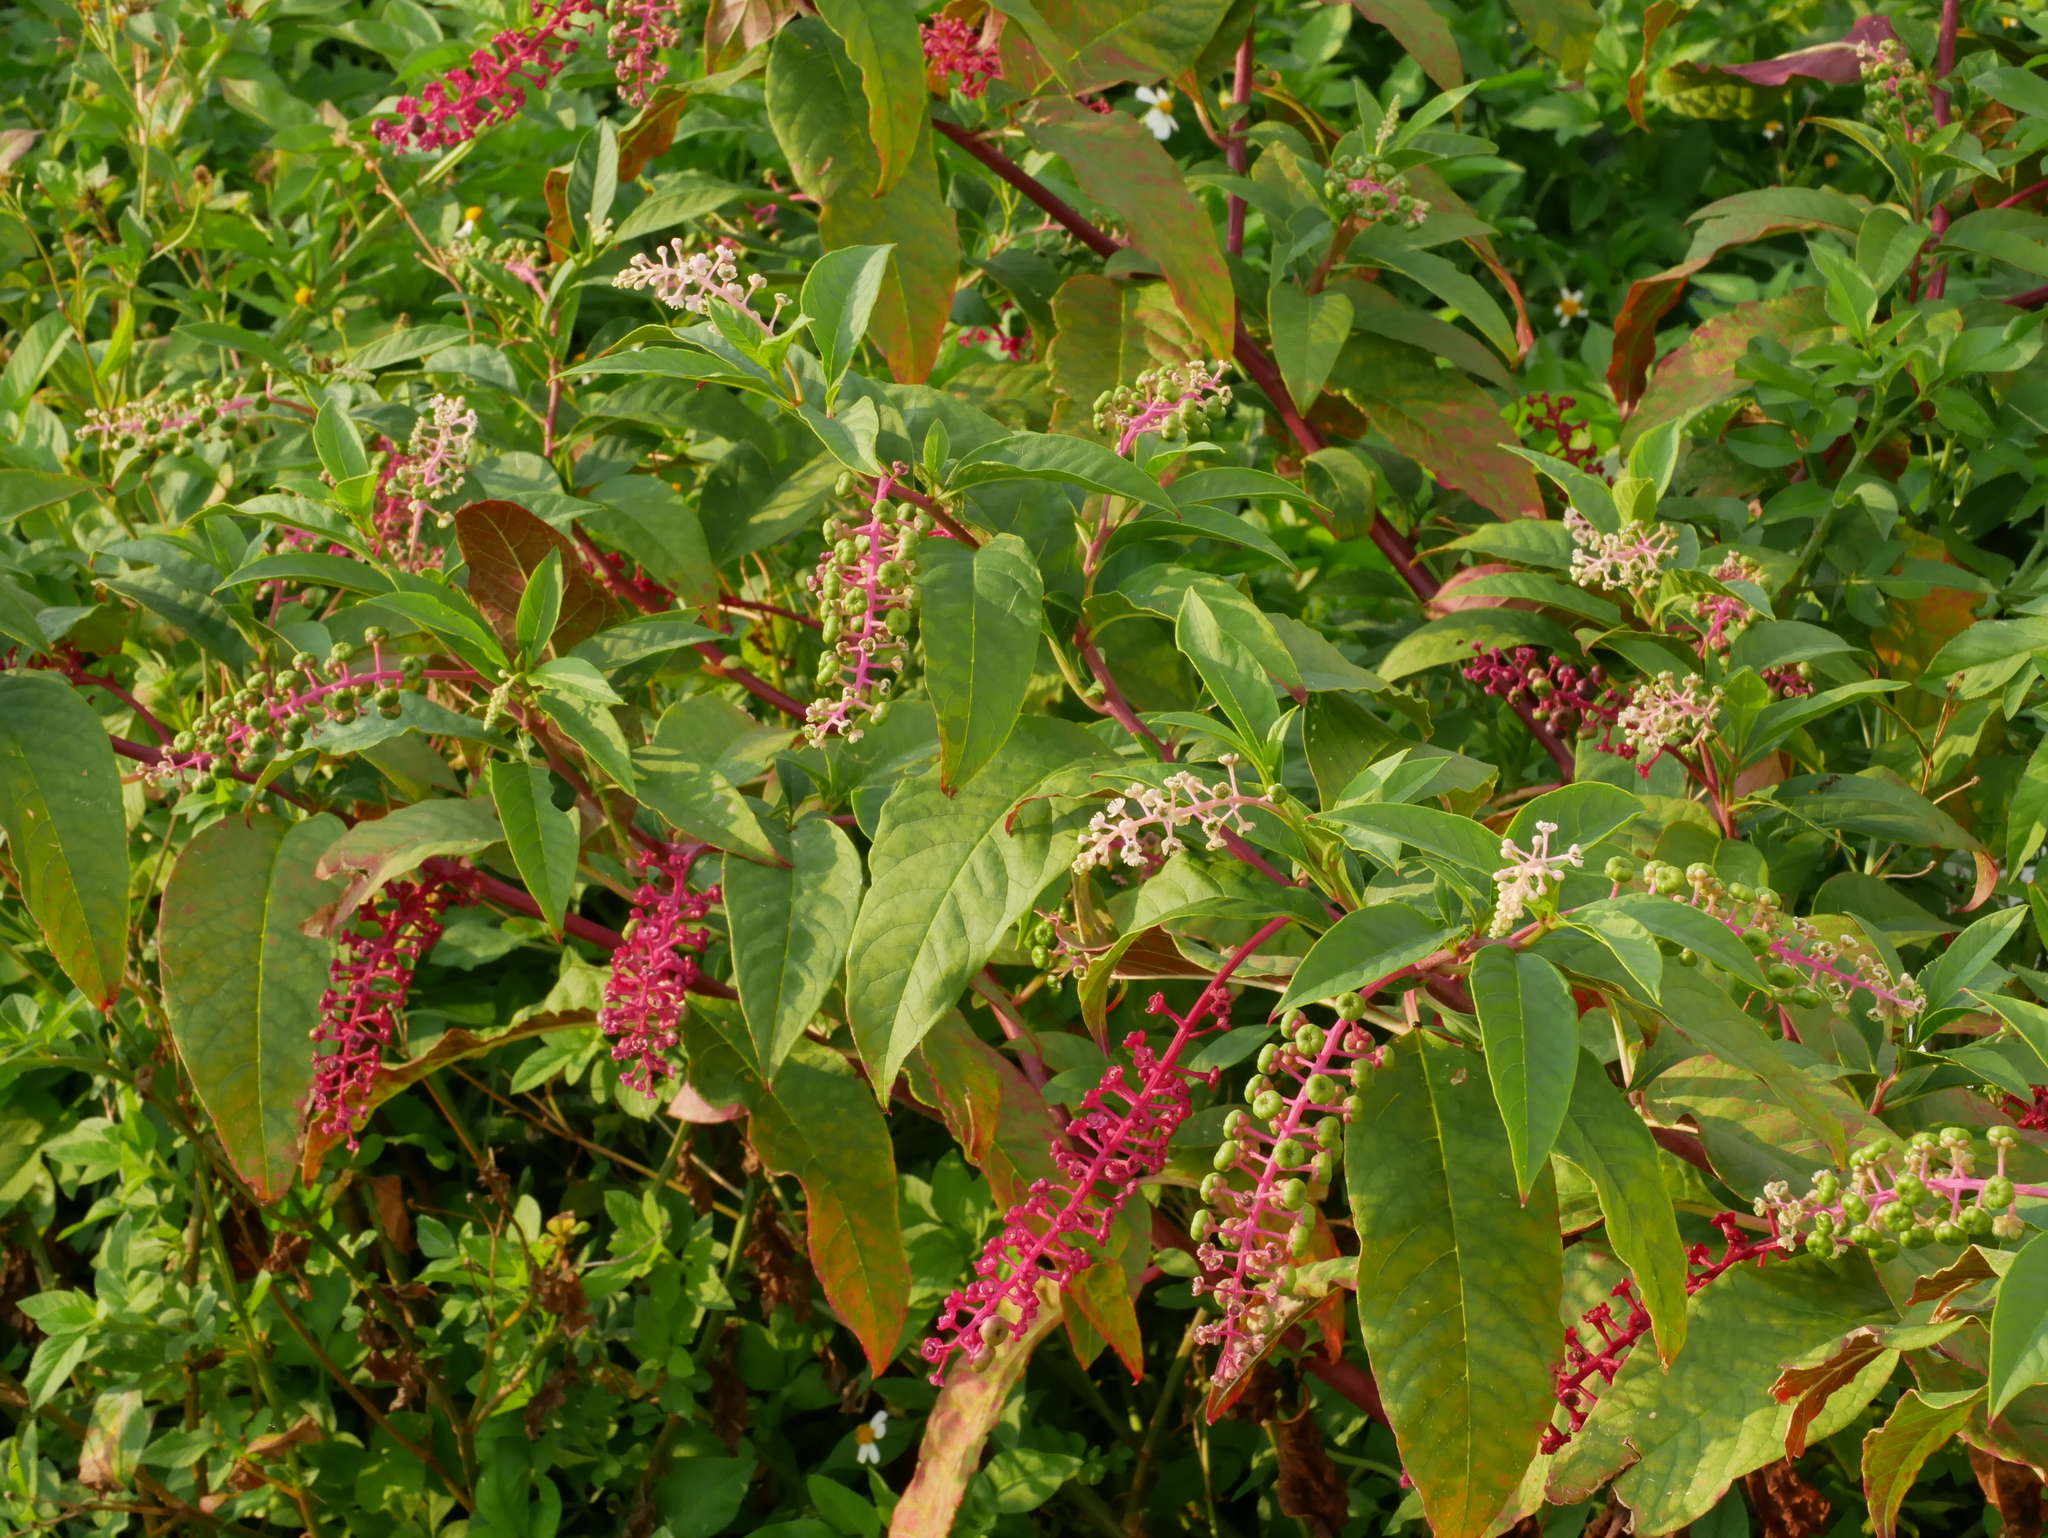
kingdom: Plantae
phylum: Tracheophyta
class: Magnoliopsida
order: Caryophyllales
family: Phytolaccaceae
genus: Phytolacca
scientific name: Phytolacca americana
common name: American pokeweed
